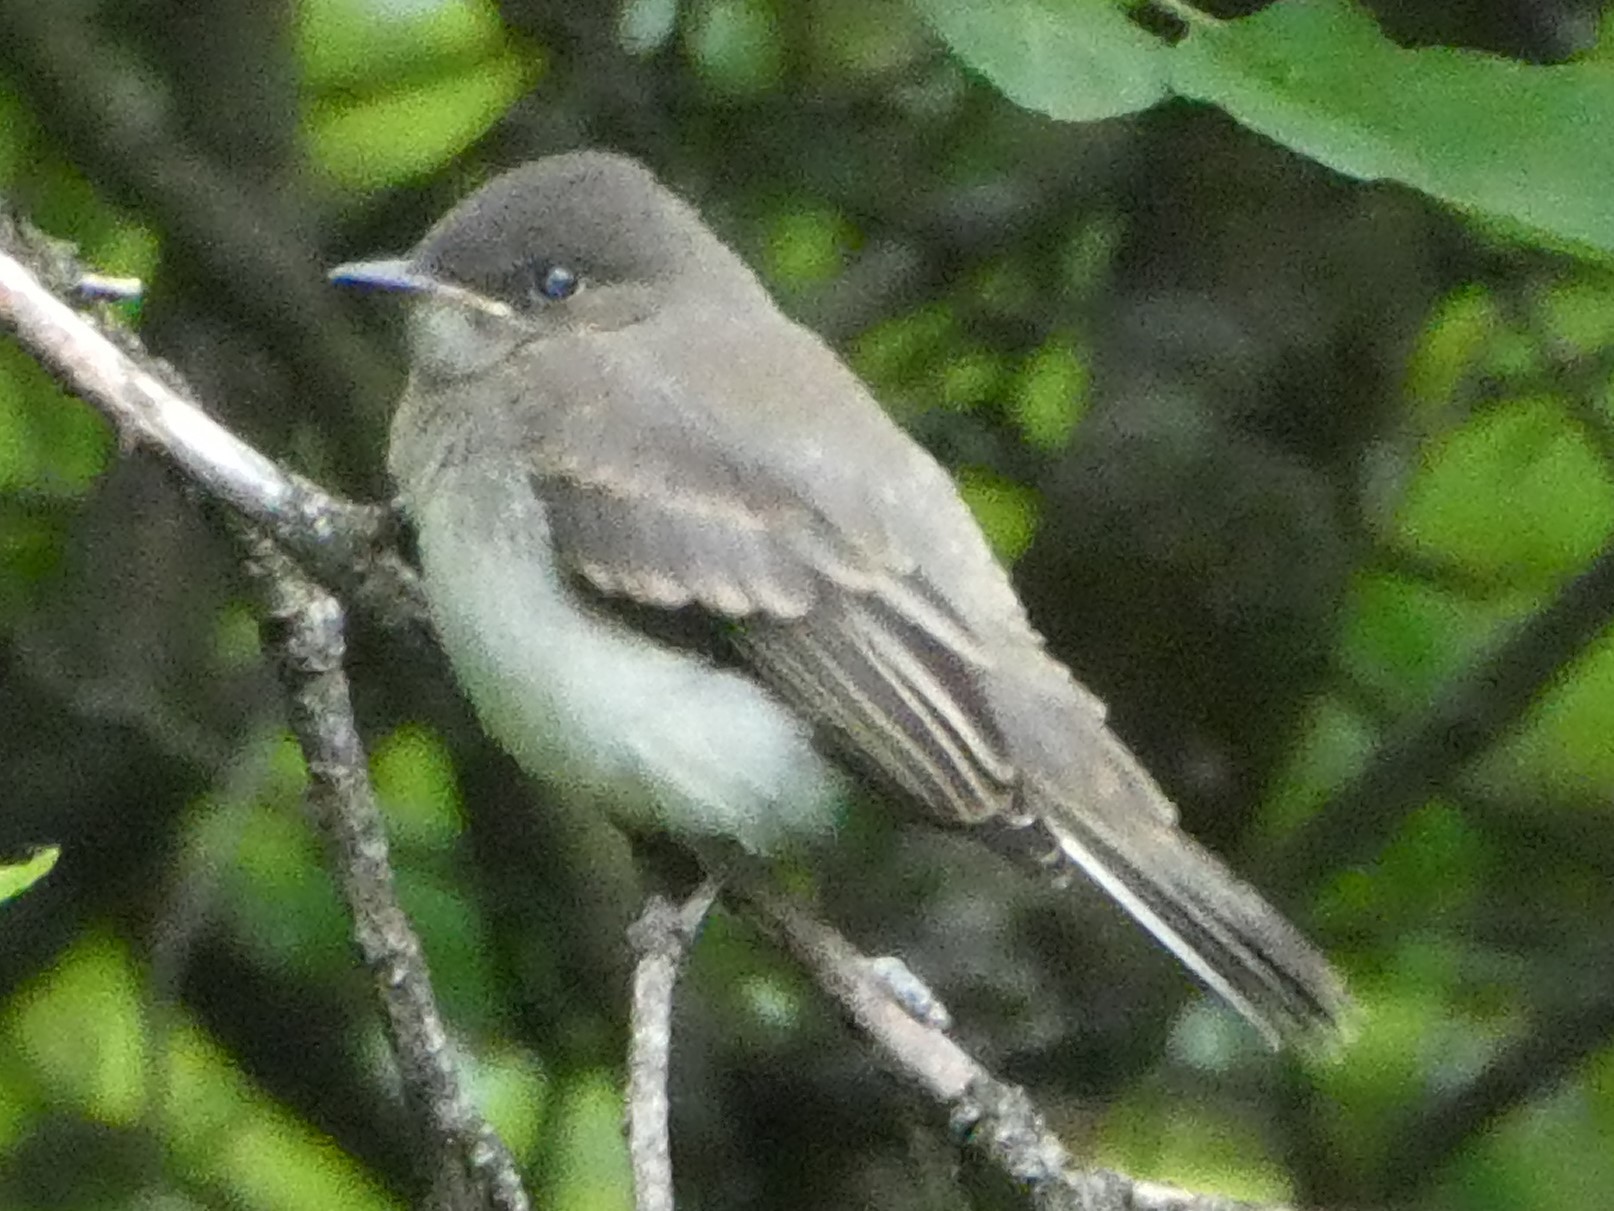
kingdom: Animalia
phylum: Chordata
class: Aves
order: Passeriformes
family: Tyrannidae
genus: Sayornis
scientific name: Sayornis phoebe
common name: Eastern phoebe
